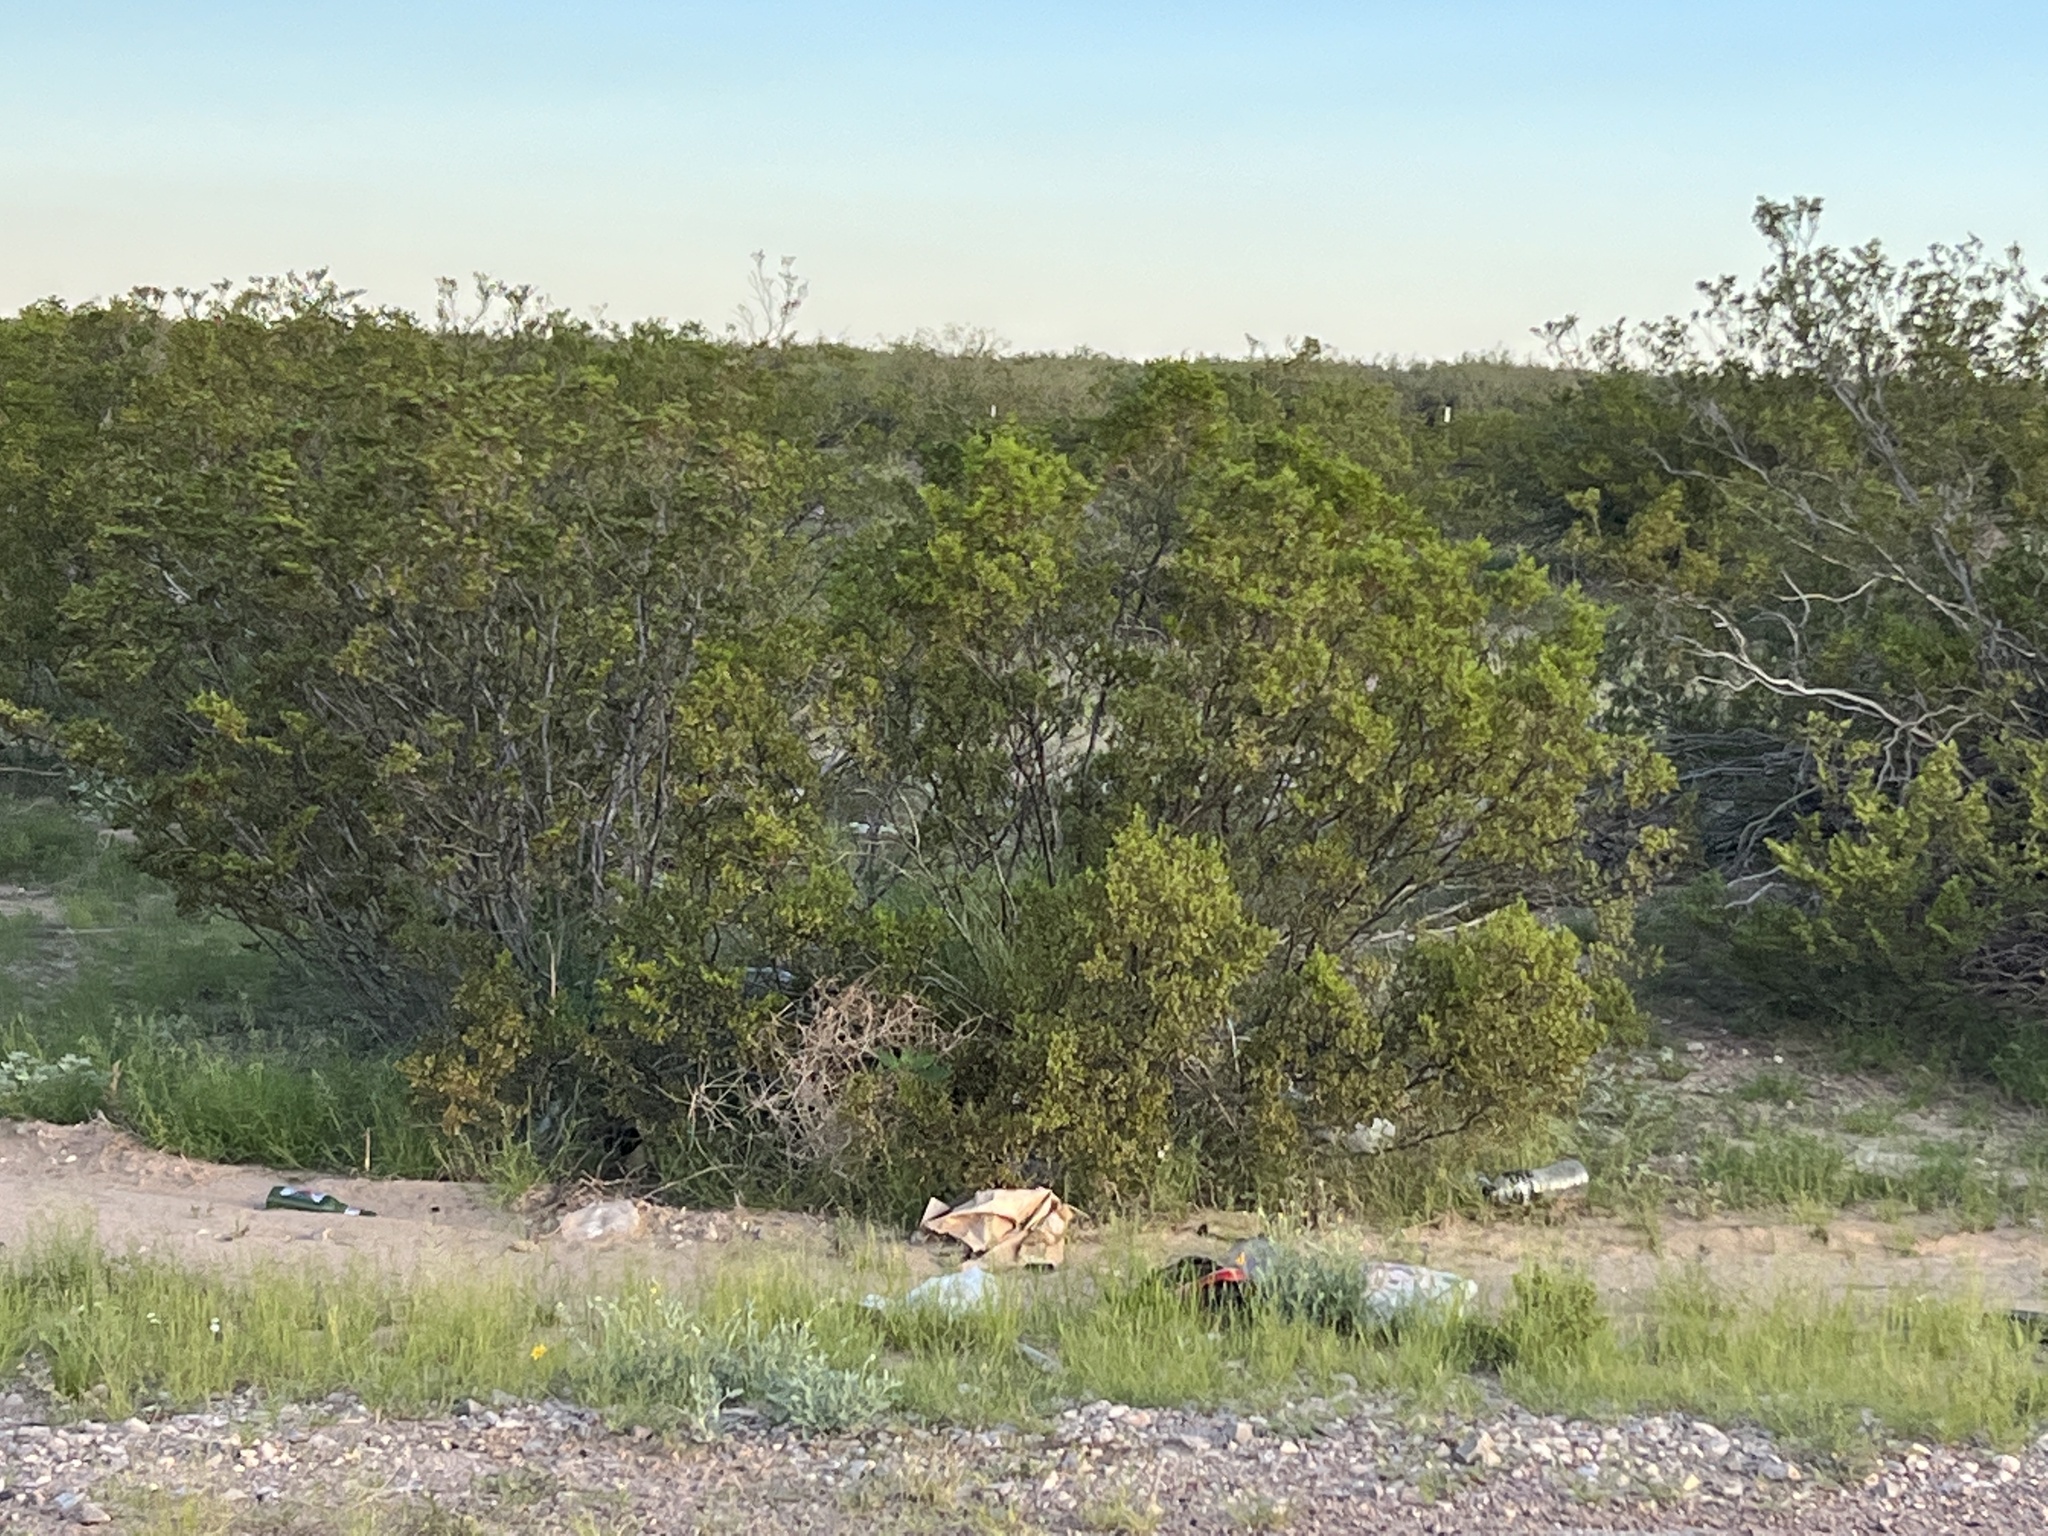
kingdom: Plantae
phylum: Tracheophyta
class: Magnoliopsida
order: Zygophyllales
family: Zygophyllaceae
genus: Larrea
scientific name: Larrea tridentata
